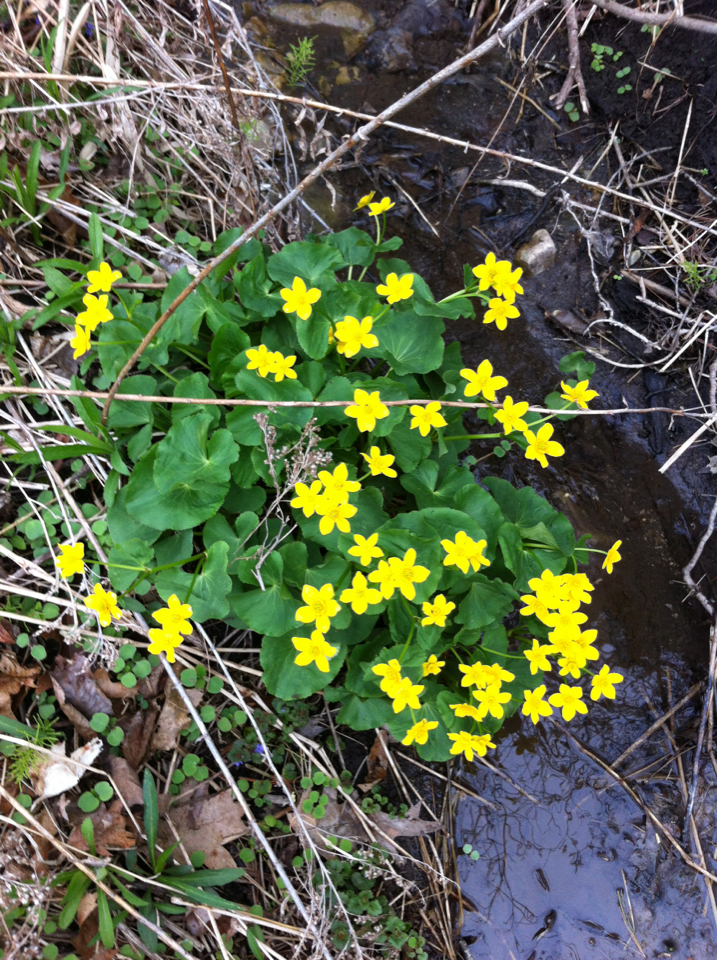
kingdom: Plantae
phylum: Tracheophyta
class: Magnoliopsida
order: Ranunculales
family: Ranunculaceae
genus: Caltha
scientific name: Caltha palustris
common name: Marsh marigold
